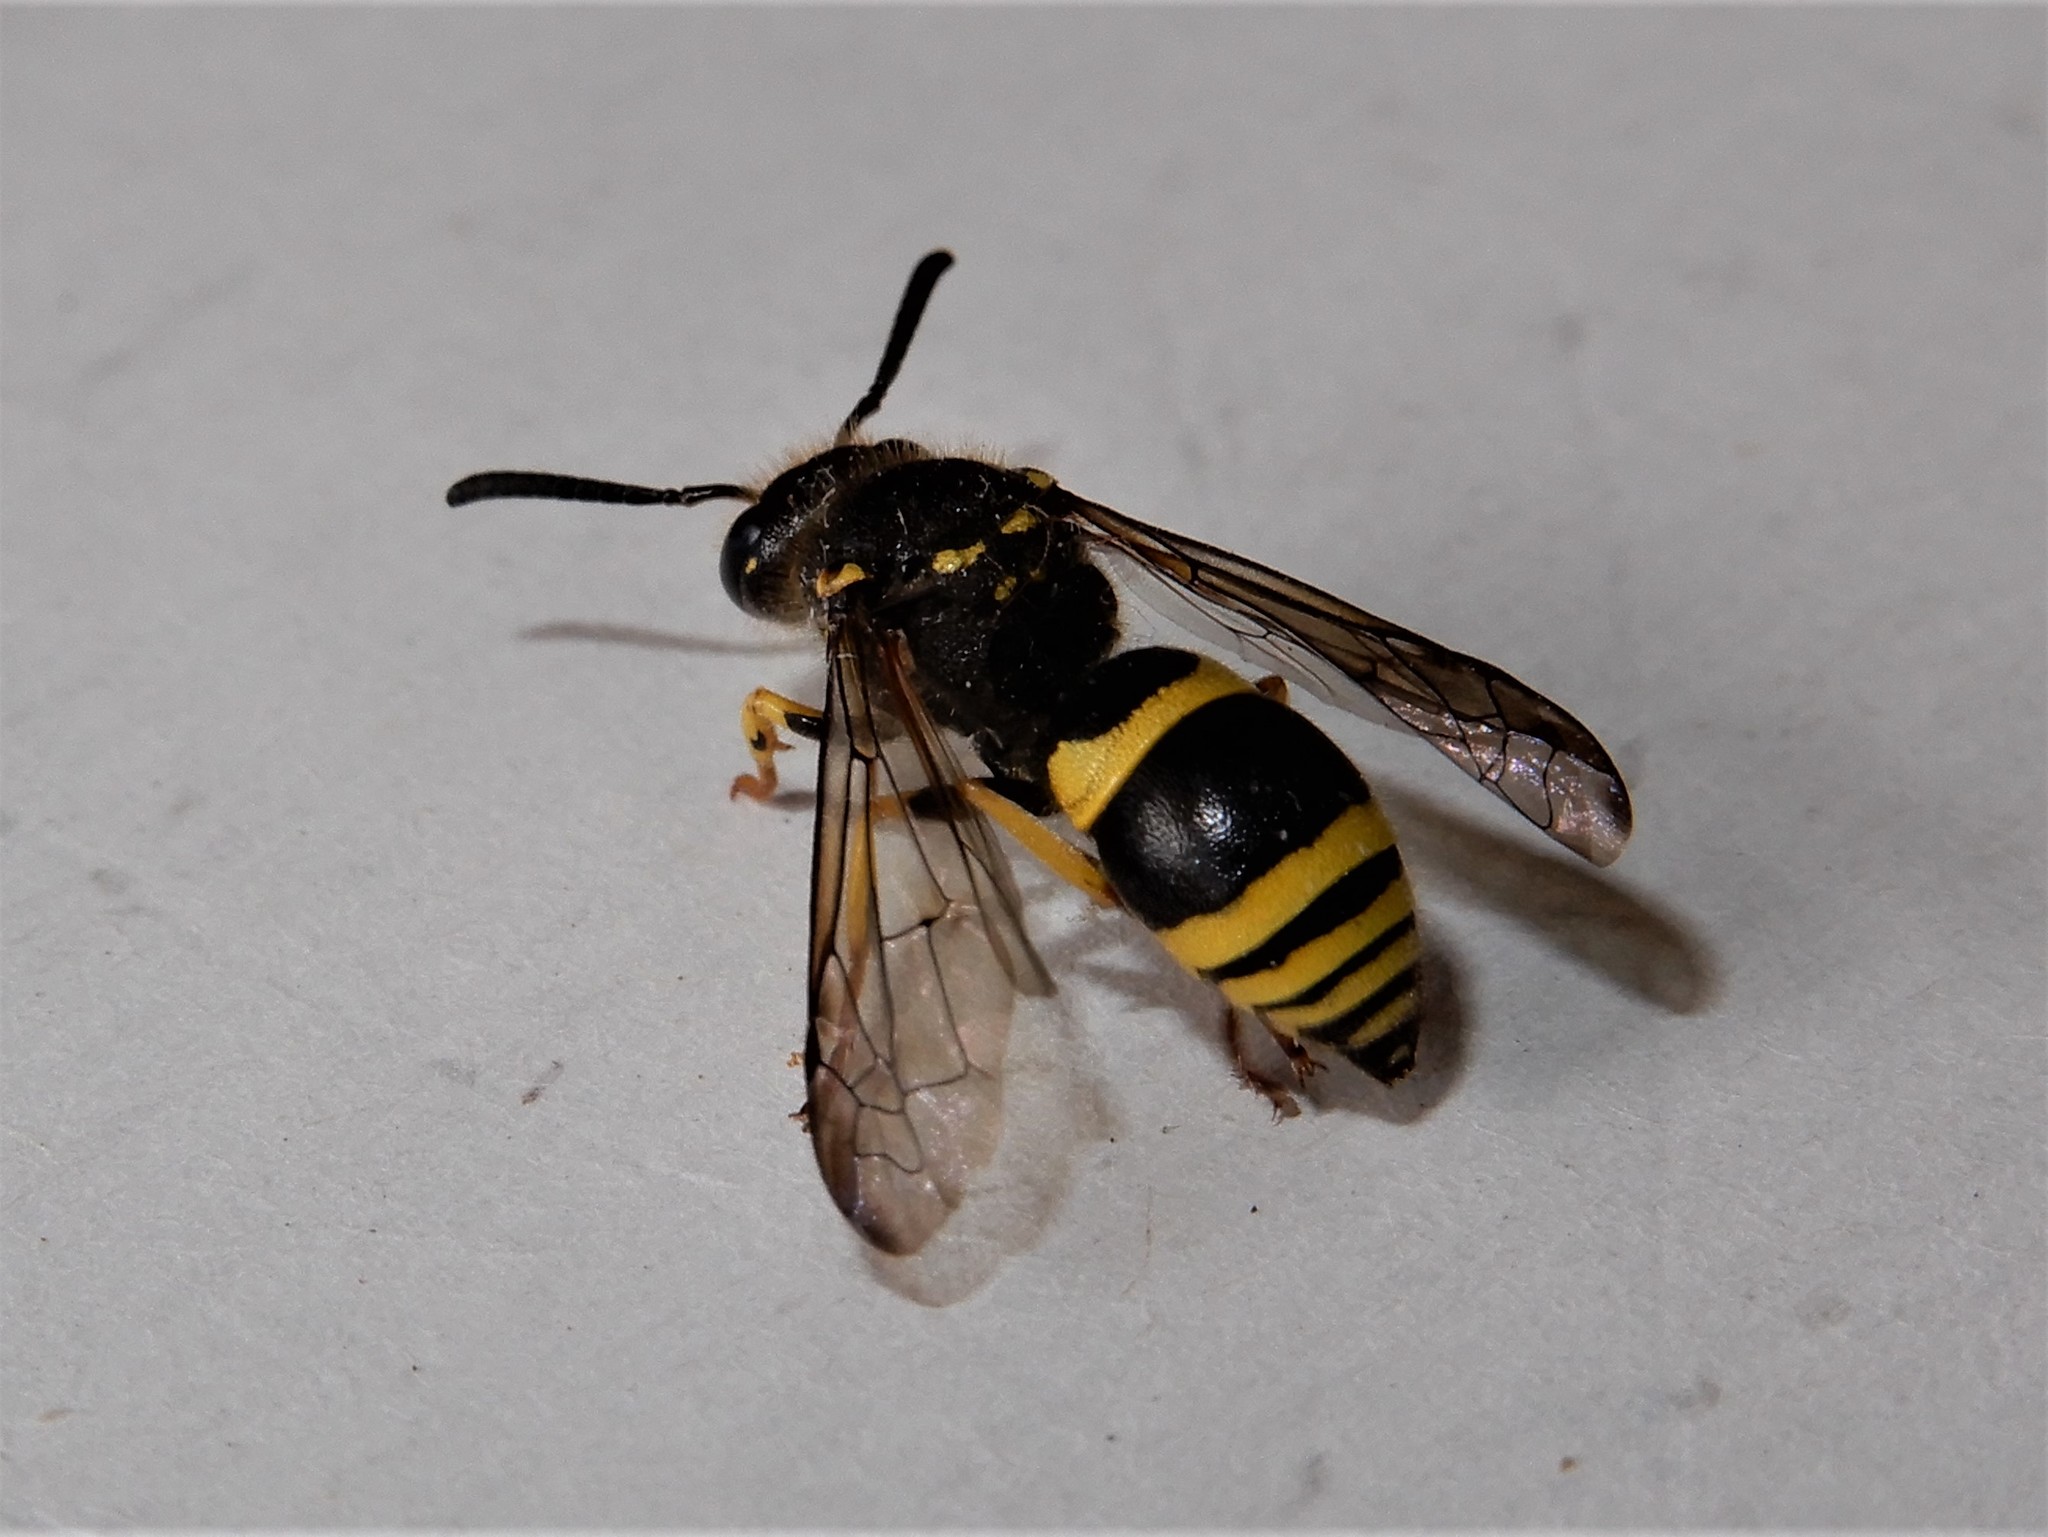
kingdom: Animalia
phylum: Arthropoda
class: Insecta
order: Hymenoptera
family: Vespidae
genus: Ancistrocerus
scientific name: Ancistrocerus gazella
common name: European tube wasp
